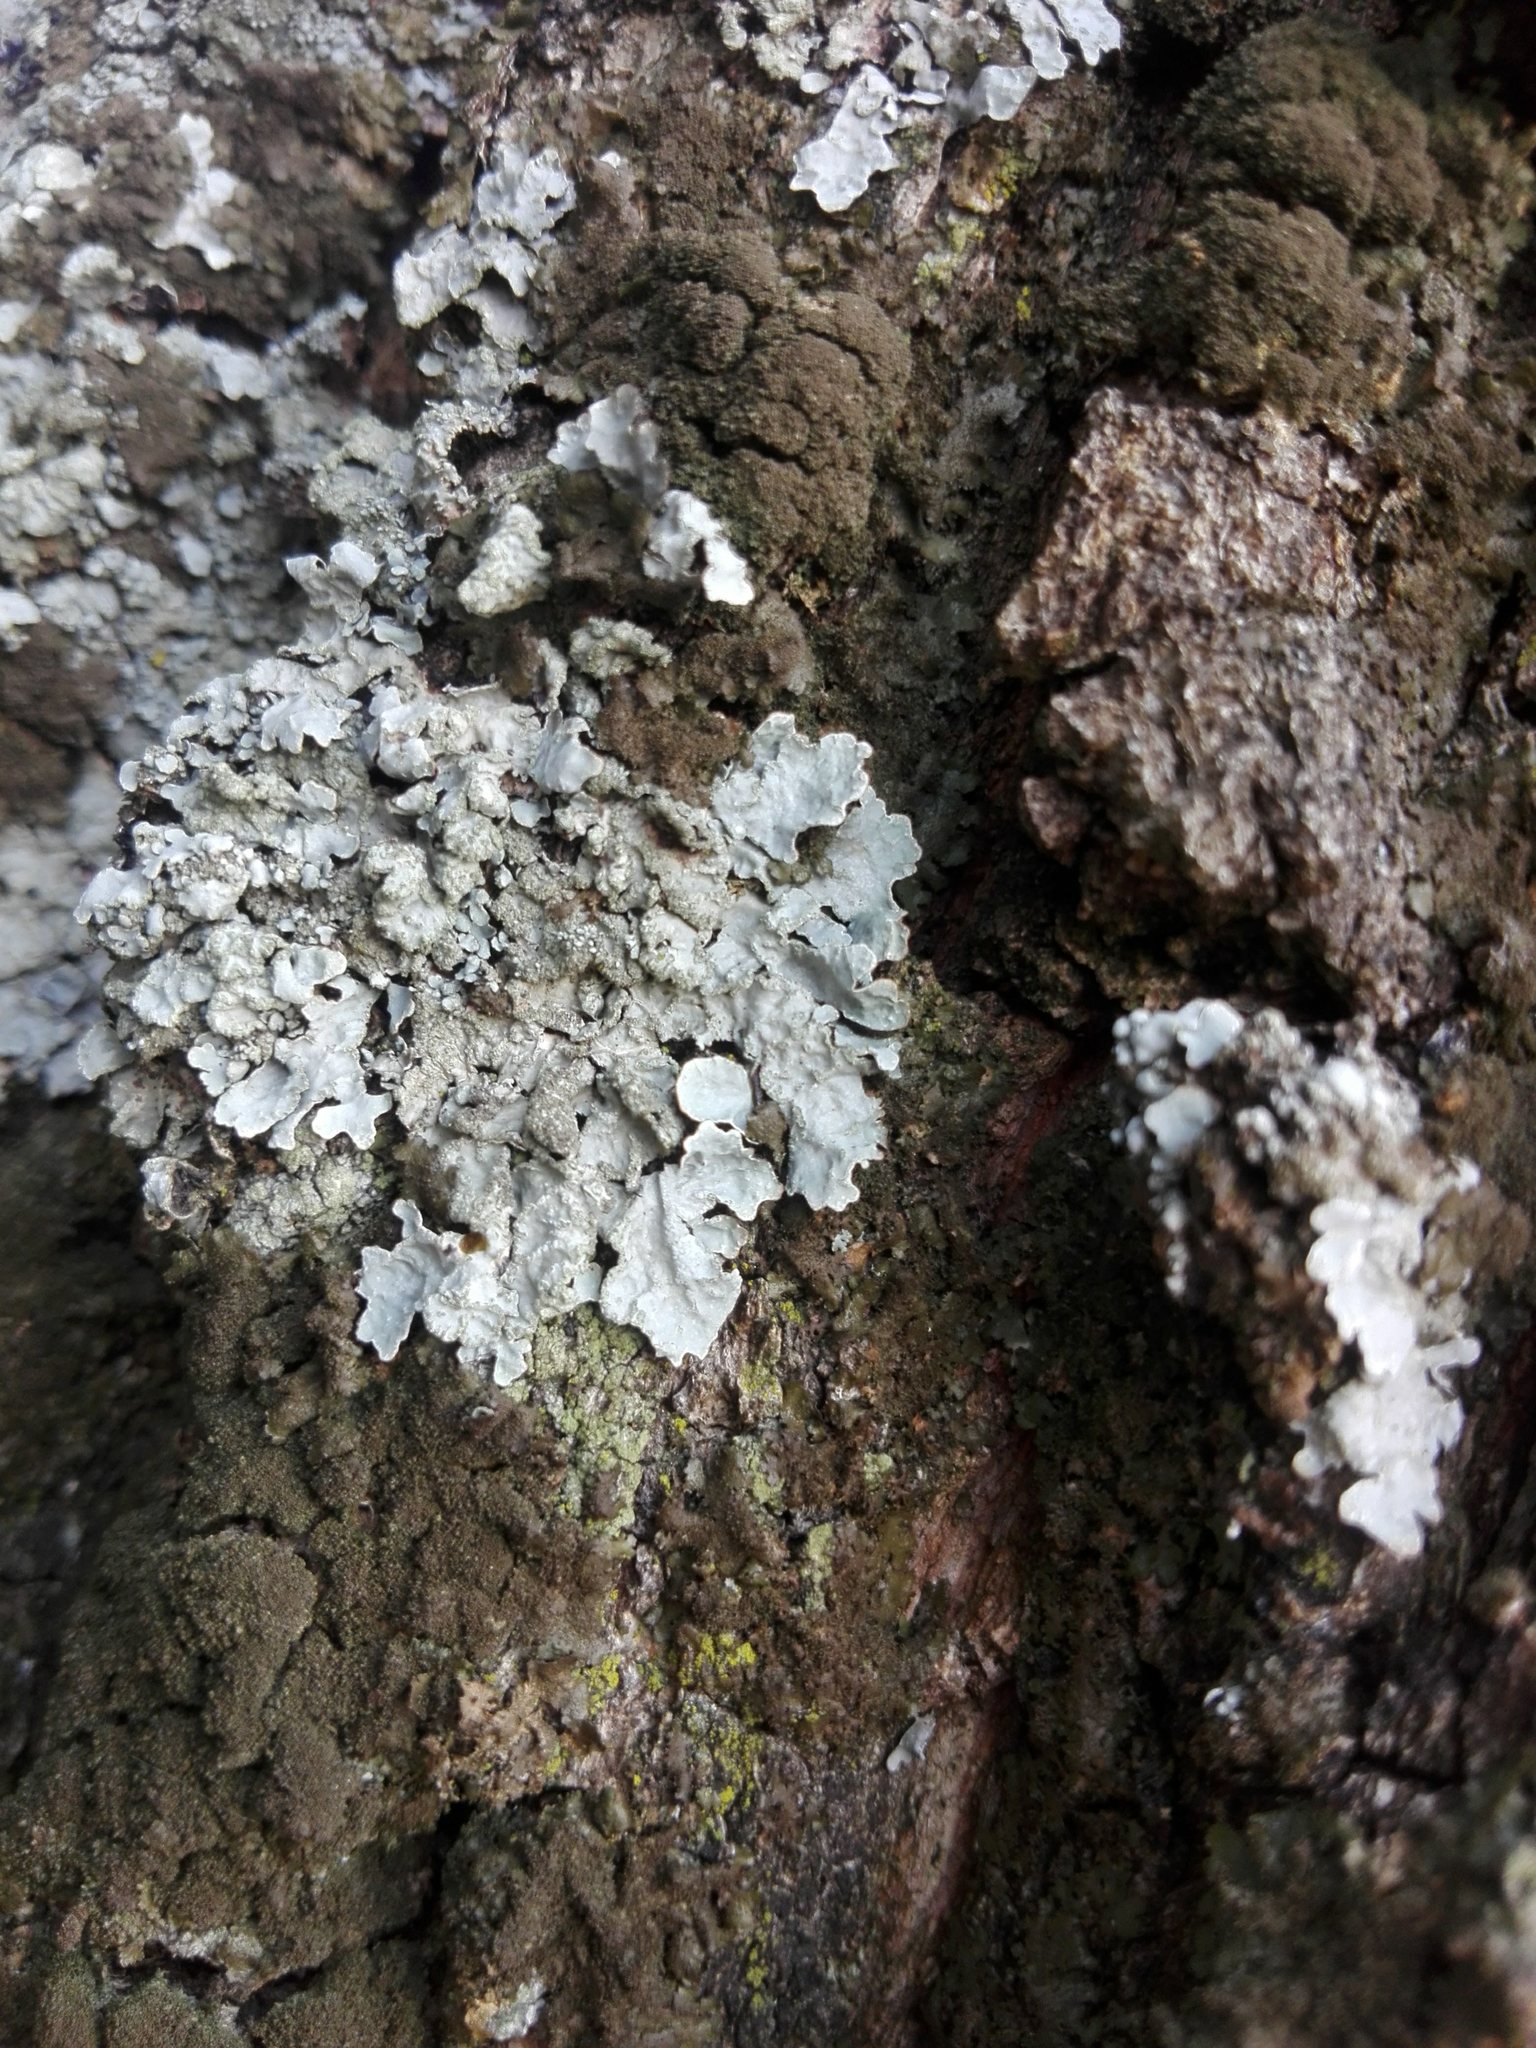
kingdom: Fungi
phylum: Ascomycota
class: Lecanoromycetes
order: Lecanorales
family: Parmeliaceae
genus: Parmelia
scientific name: Parmelia sulcata
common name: Netted shield lichen
